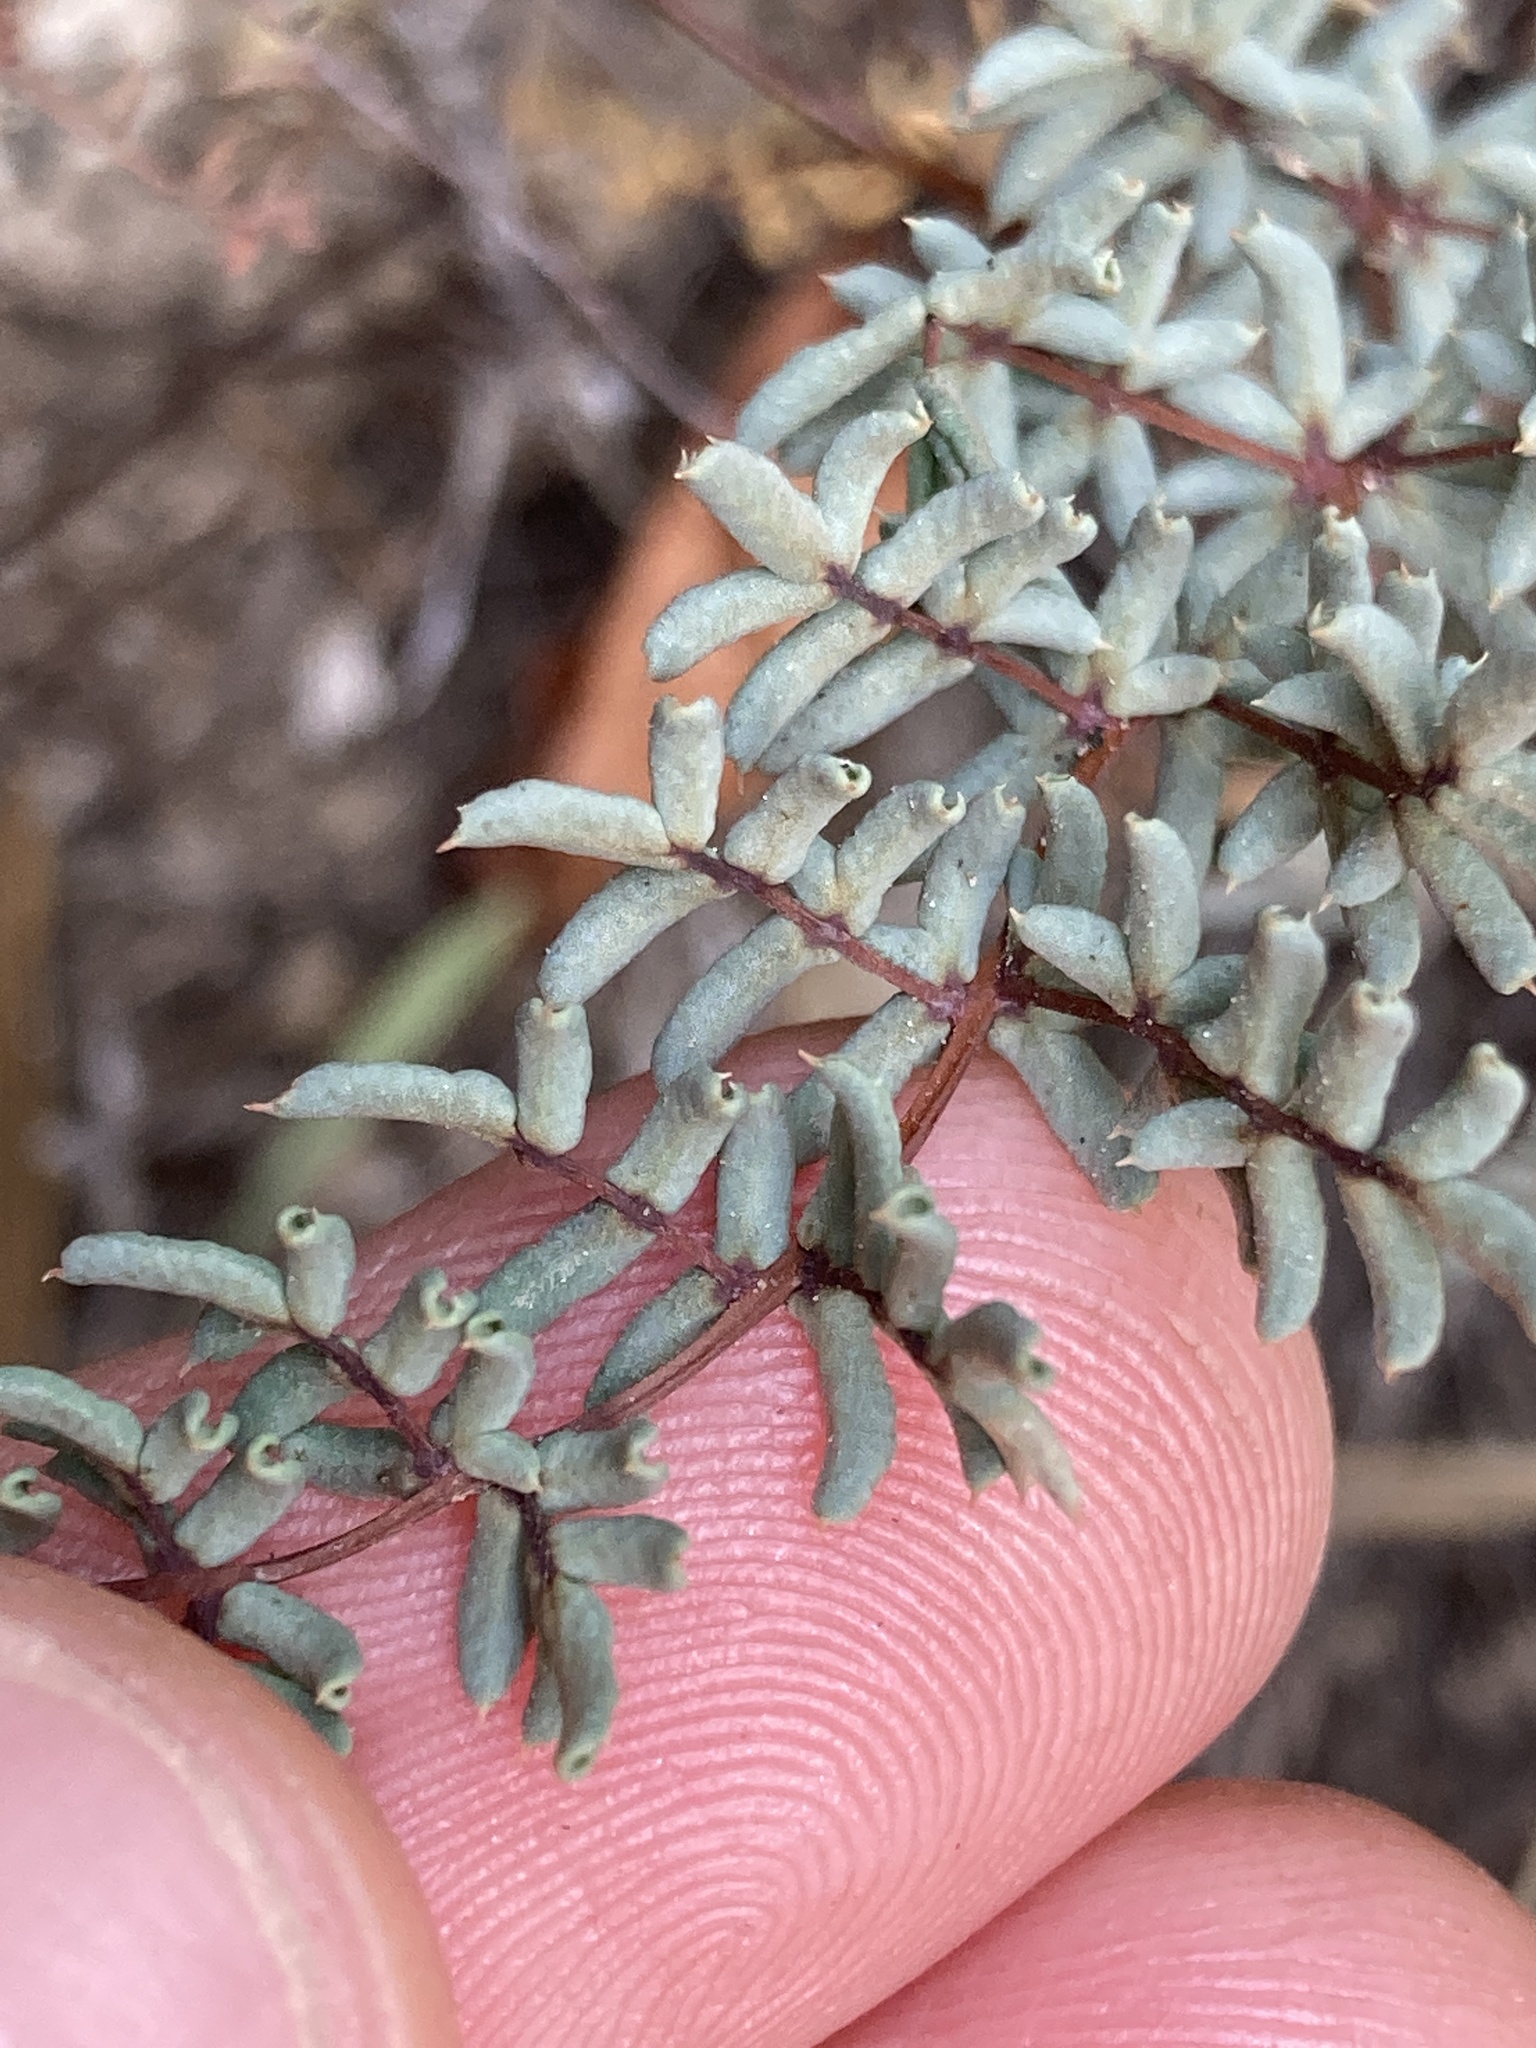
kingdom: Plantae
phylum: Tracheophyta
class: Polypodiopsida
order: Polypodiales
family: Pteridaceae
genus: Pellaea
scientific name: Pellaea mucronata
